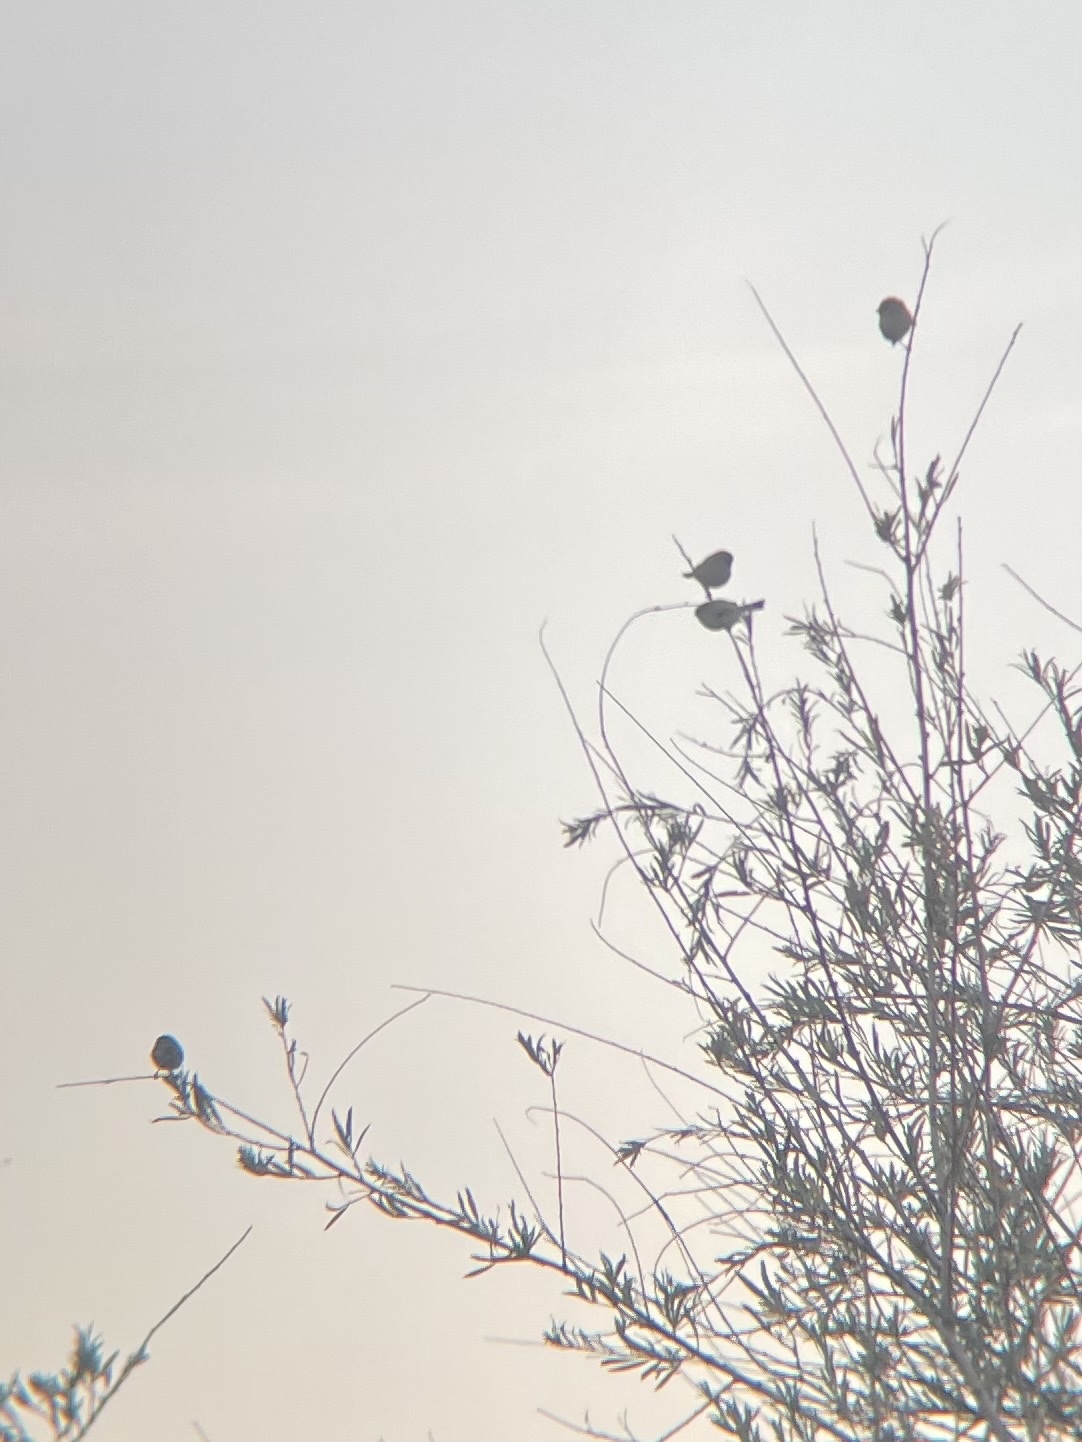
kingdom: Animalia
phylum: Chordata
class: Aves
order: Passeriformes
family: Aegithalidae
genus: Psaltriparus
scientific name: Psaltriparus minimus
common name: American bushtit
